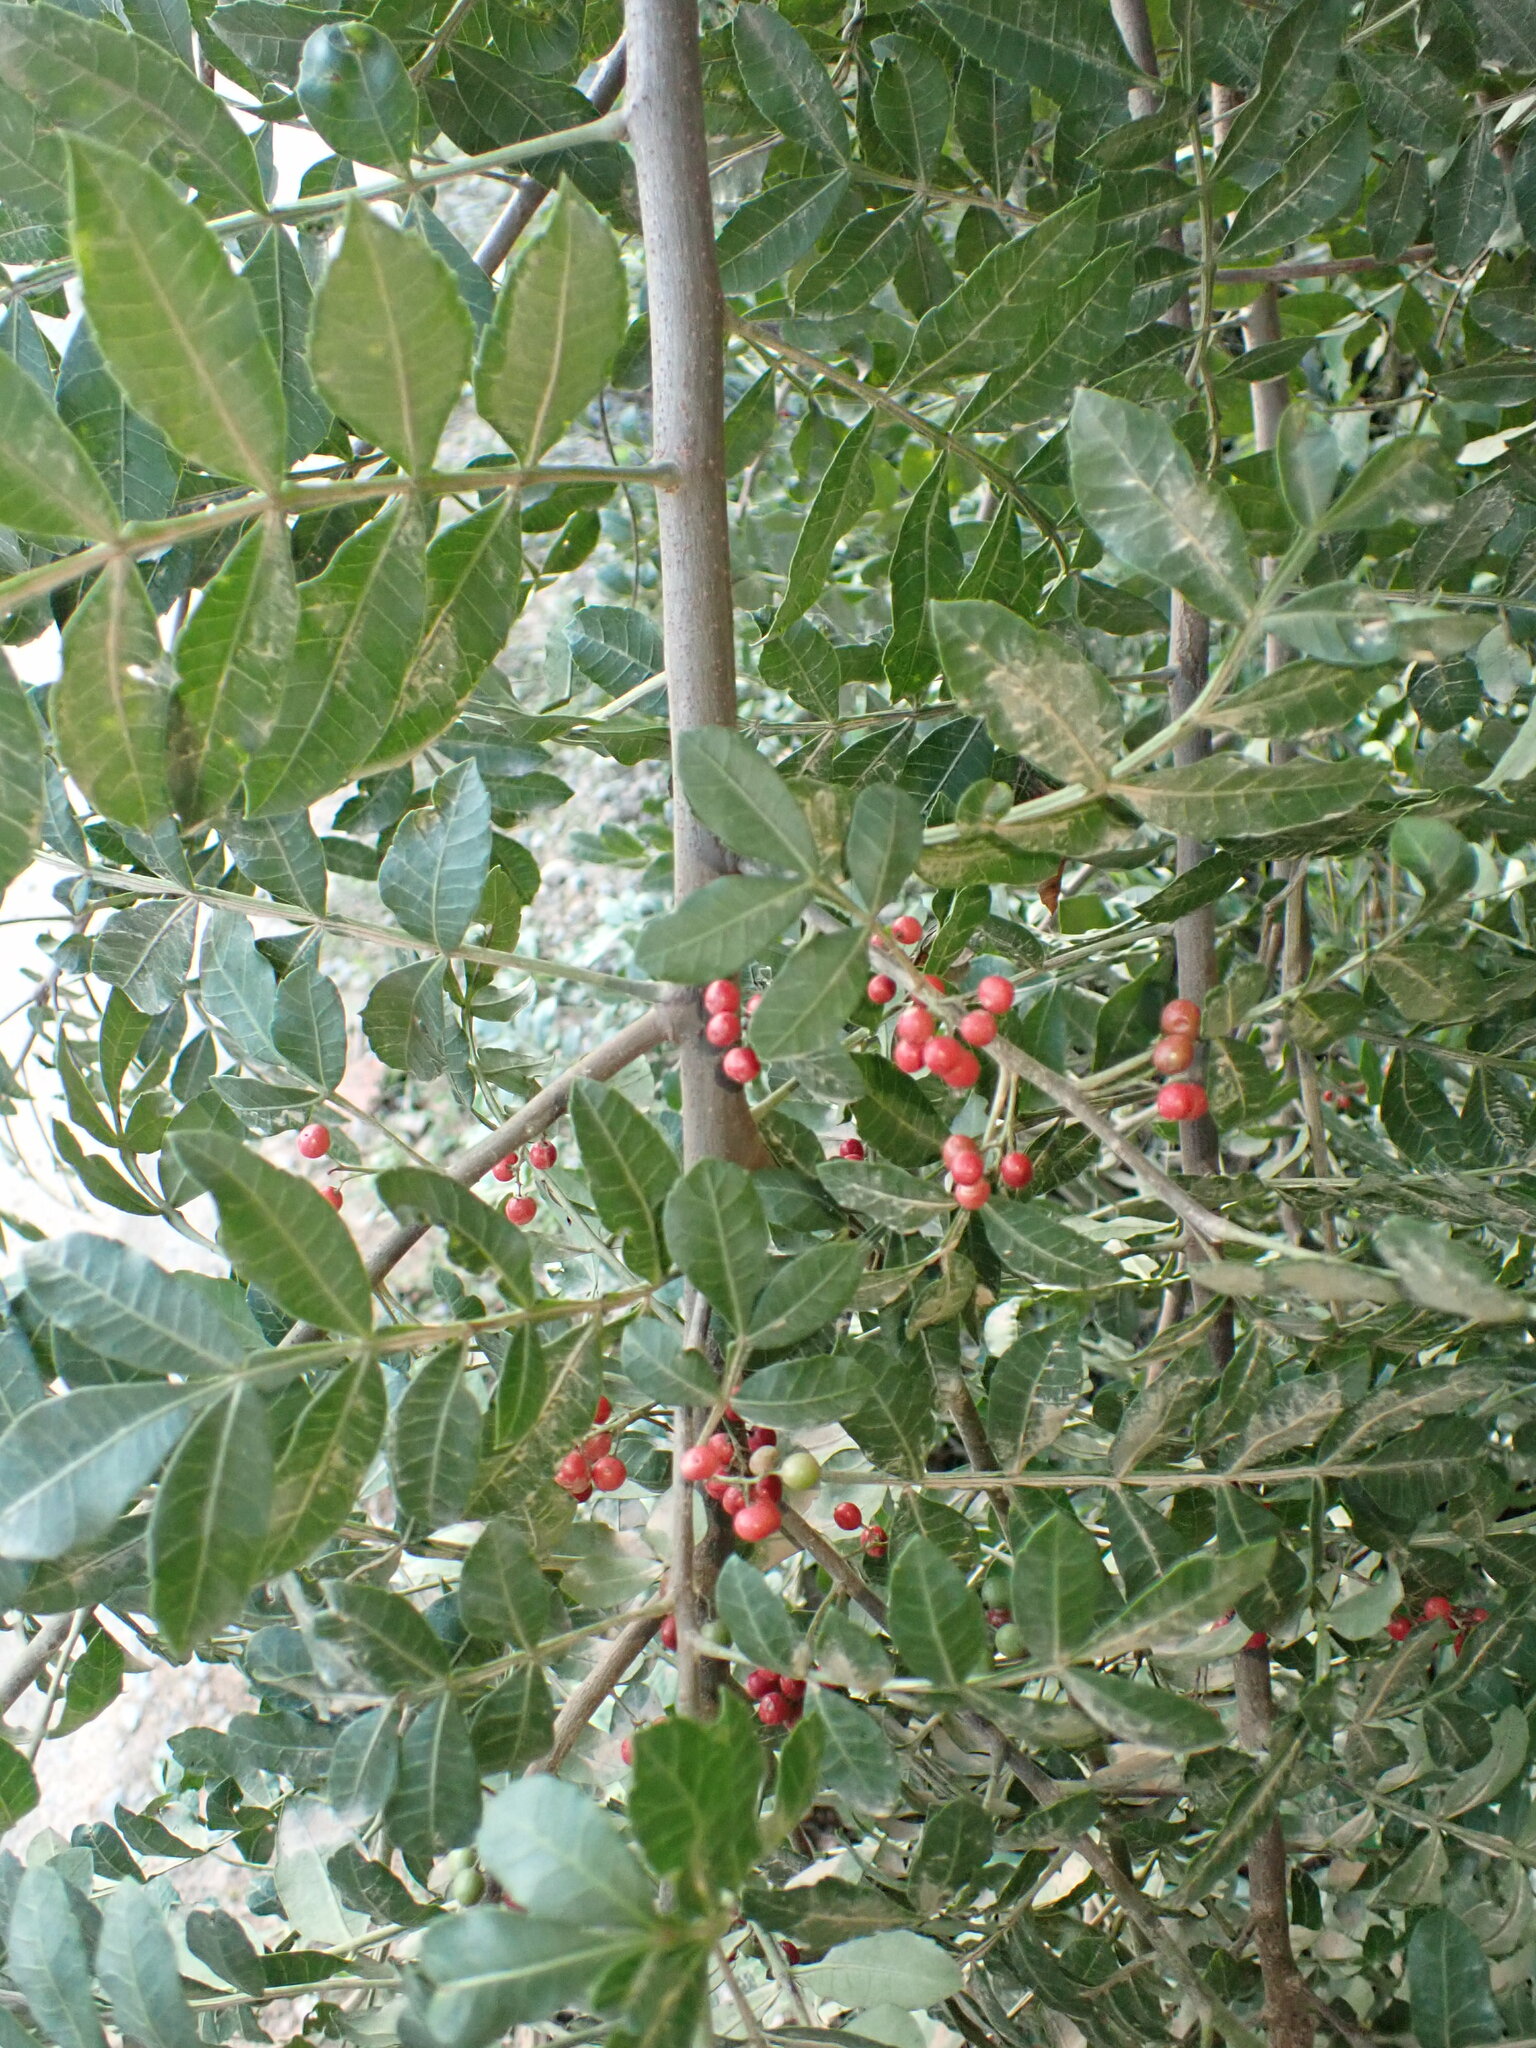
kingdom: Plantae
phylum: Tracheophyta
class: Magnoliopsida
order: Sapindales
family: Anacardiaceae
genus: Schinus
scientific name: Schinus terebinthifolia
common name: Brazilian peppertree
